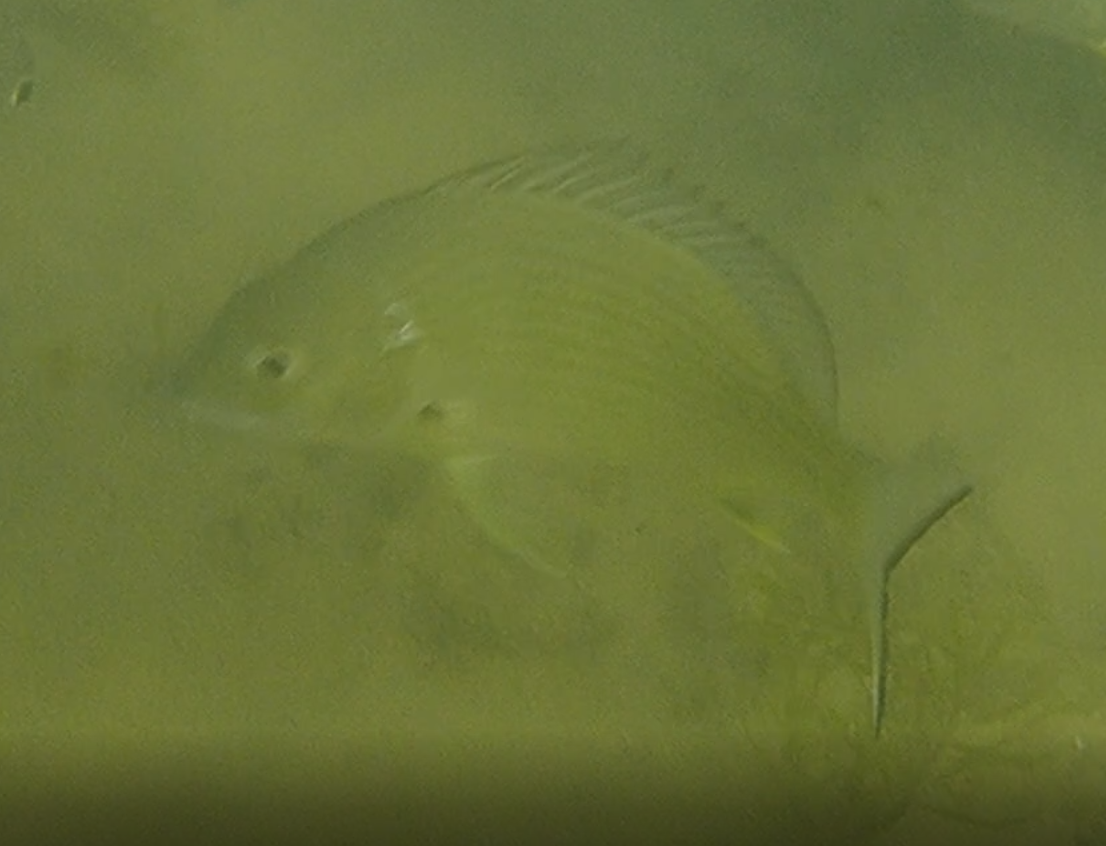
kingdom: Animalia
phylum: Chordata
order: Perciformes
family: Sparidae
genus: Acanthopagrus
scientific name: Acanthopagrus australis
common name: Surf bream
